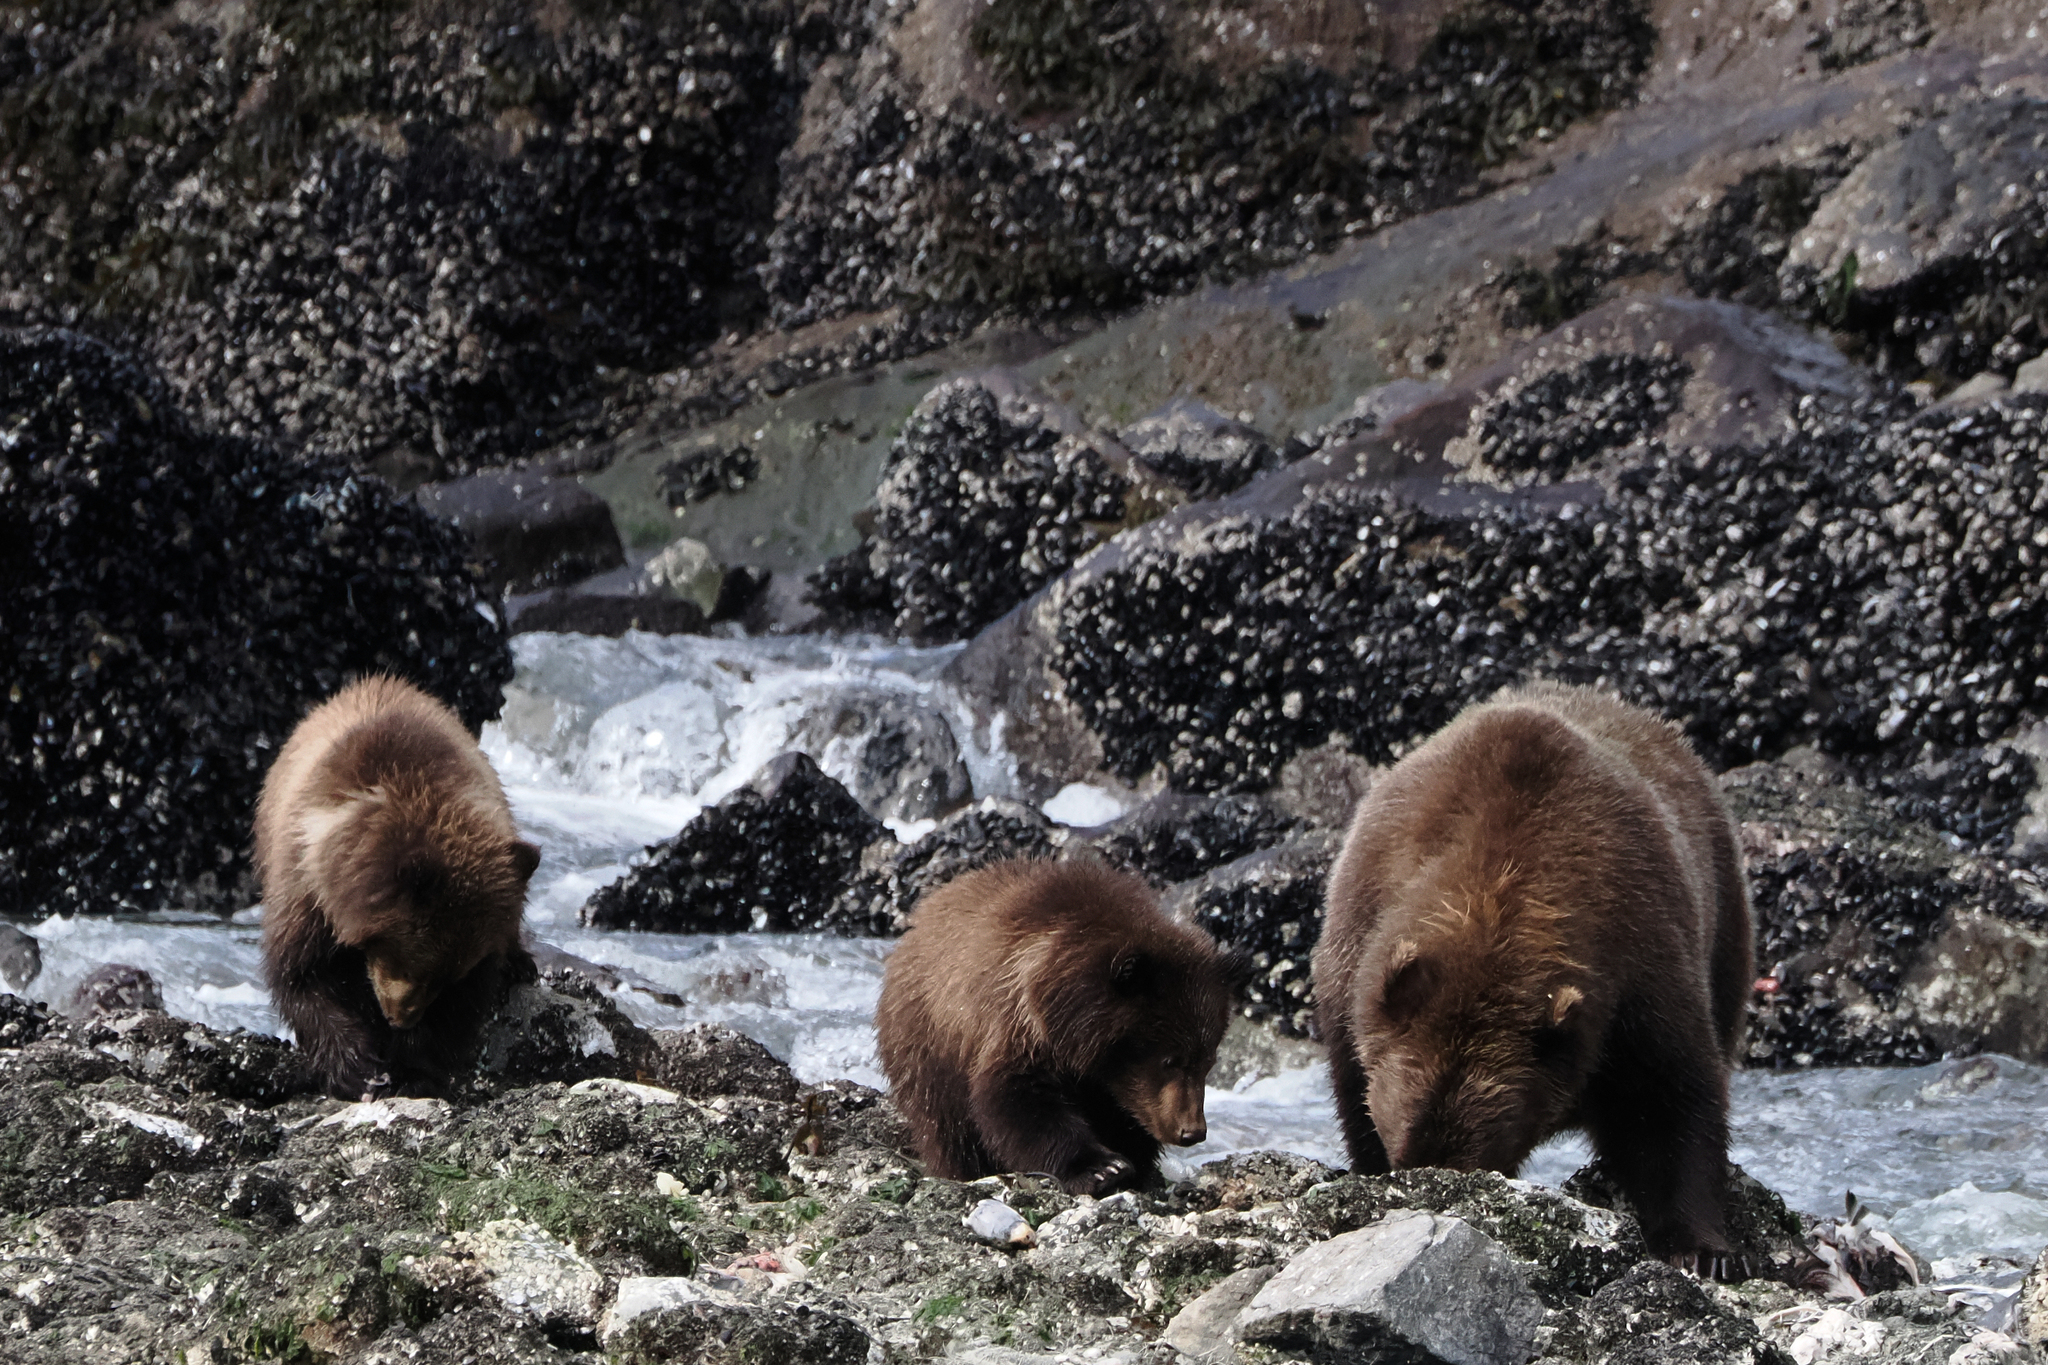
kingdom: Animalia
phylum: Chordata
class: Mammalia
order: Carnivora
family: Ursidae
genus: Ursus
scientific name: Ursus arctos
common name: Brown bear
